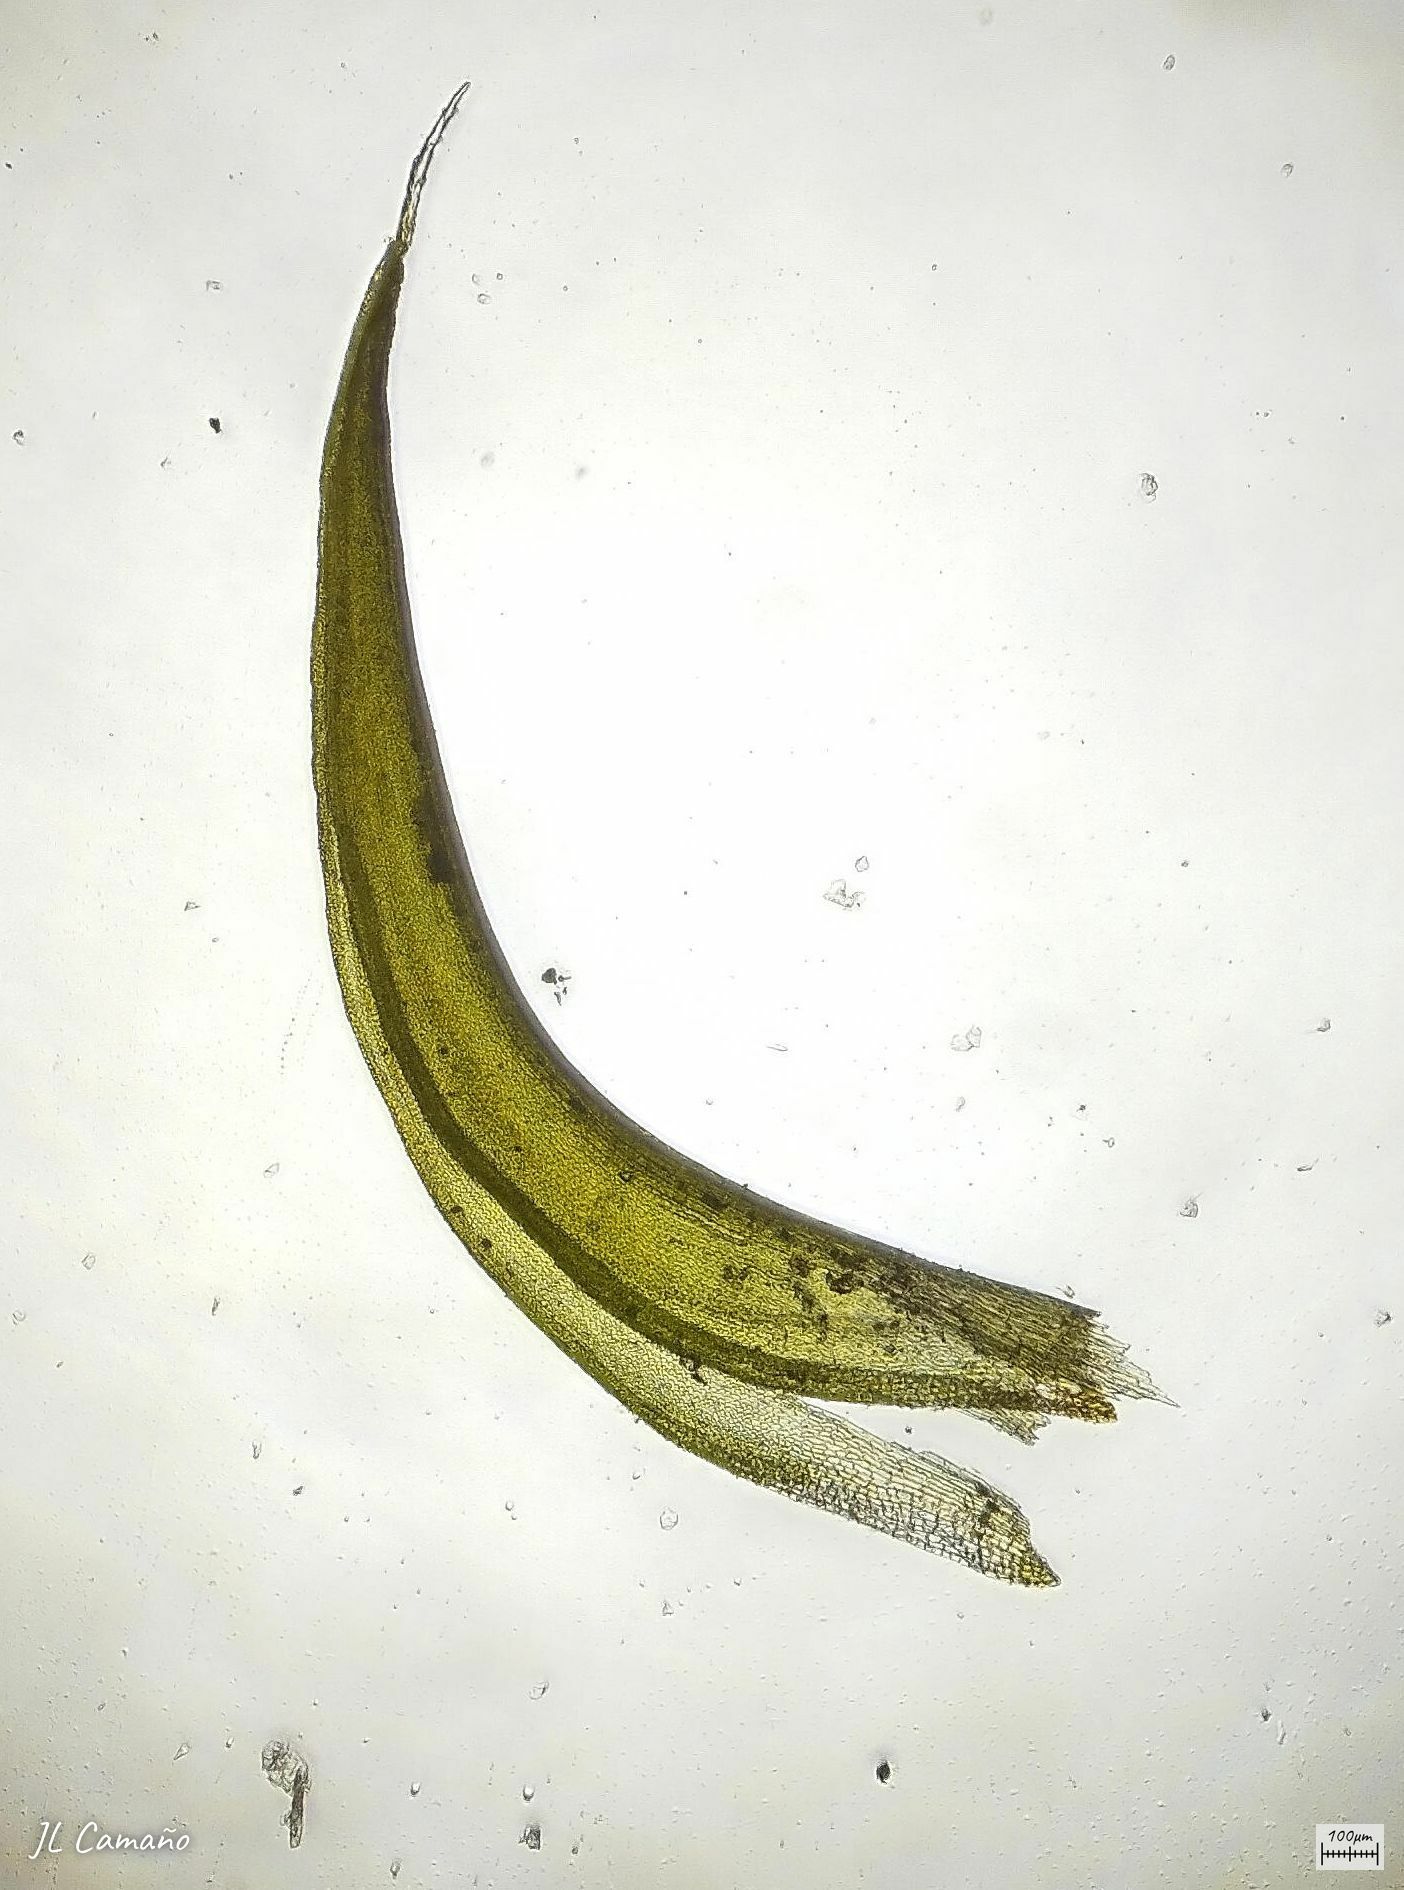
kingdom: Plantae
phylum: Bryophyta
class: Bryopsida
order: Grimmiales
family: Grimmiaceae
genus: Grimmia
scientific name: Grimmia lisae
